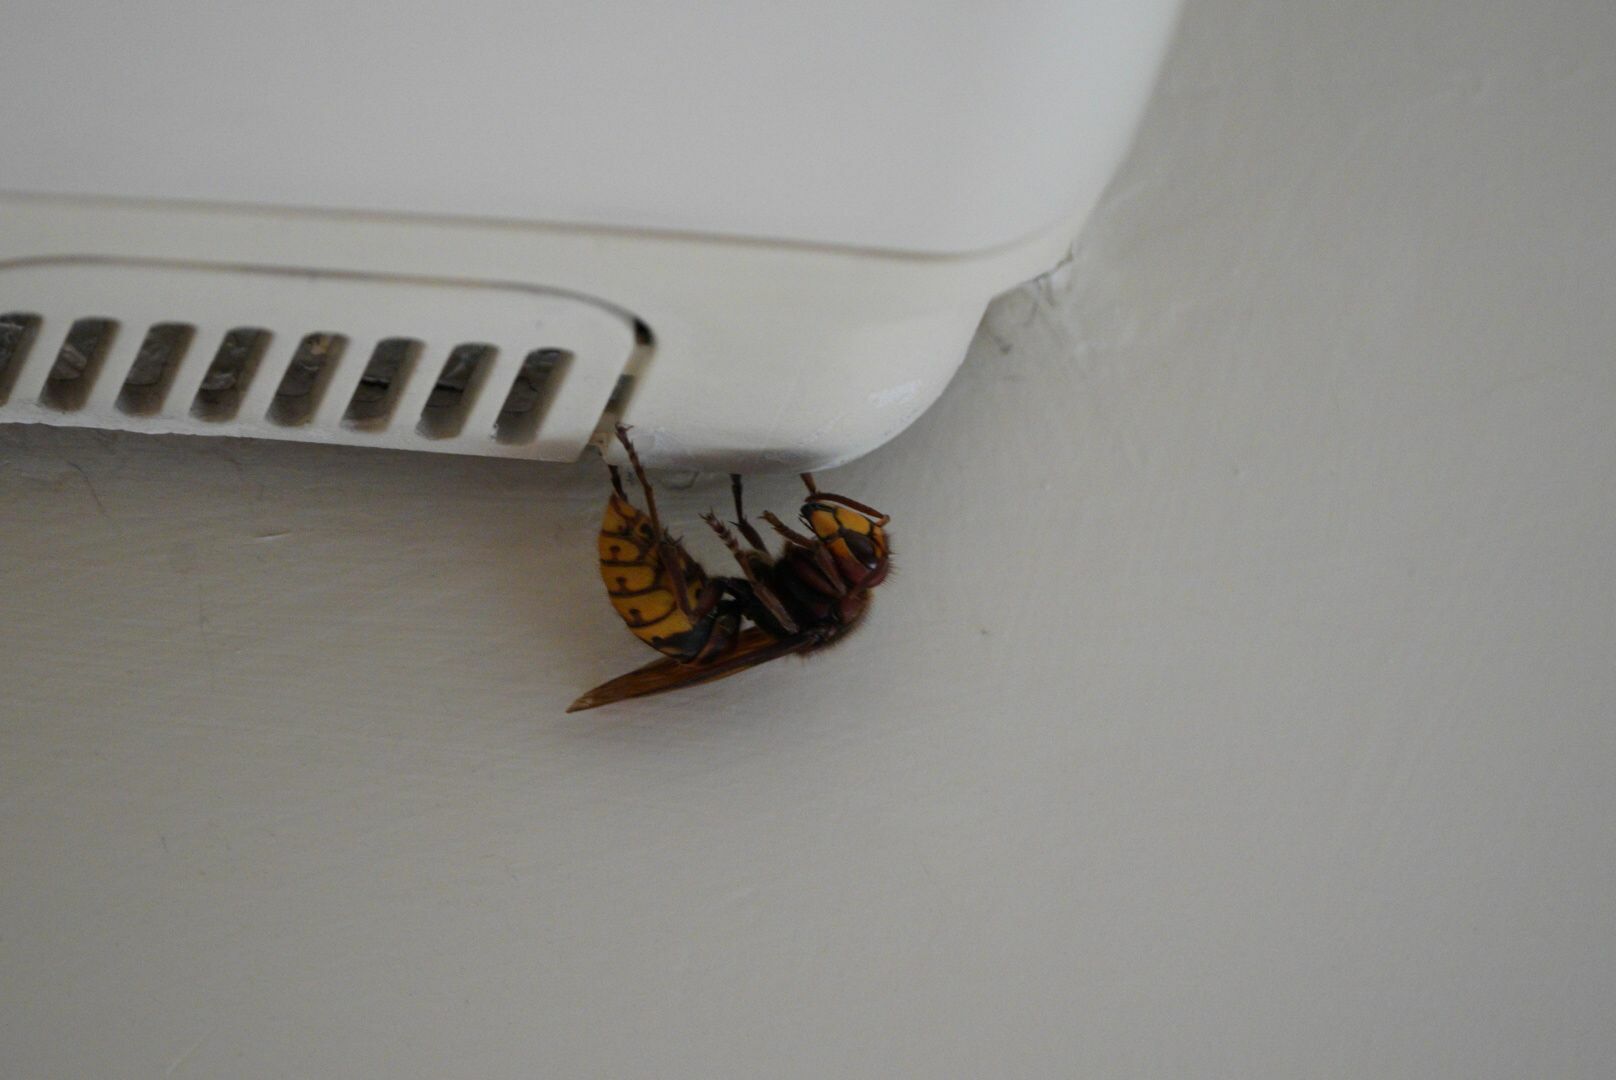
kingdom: Animalia
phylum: Arthropoda
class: Insecta
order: Hymenoptera
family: Vespidae
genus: Vespa
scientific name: Vespa crabro
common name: Hornet
